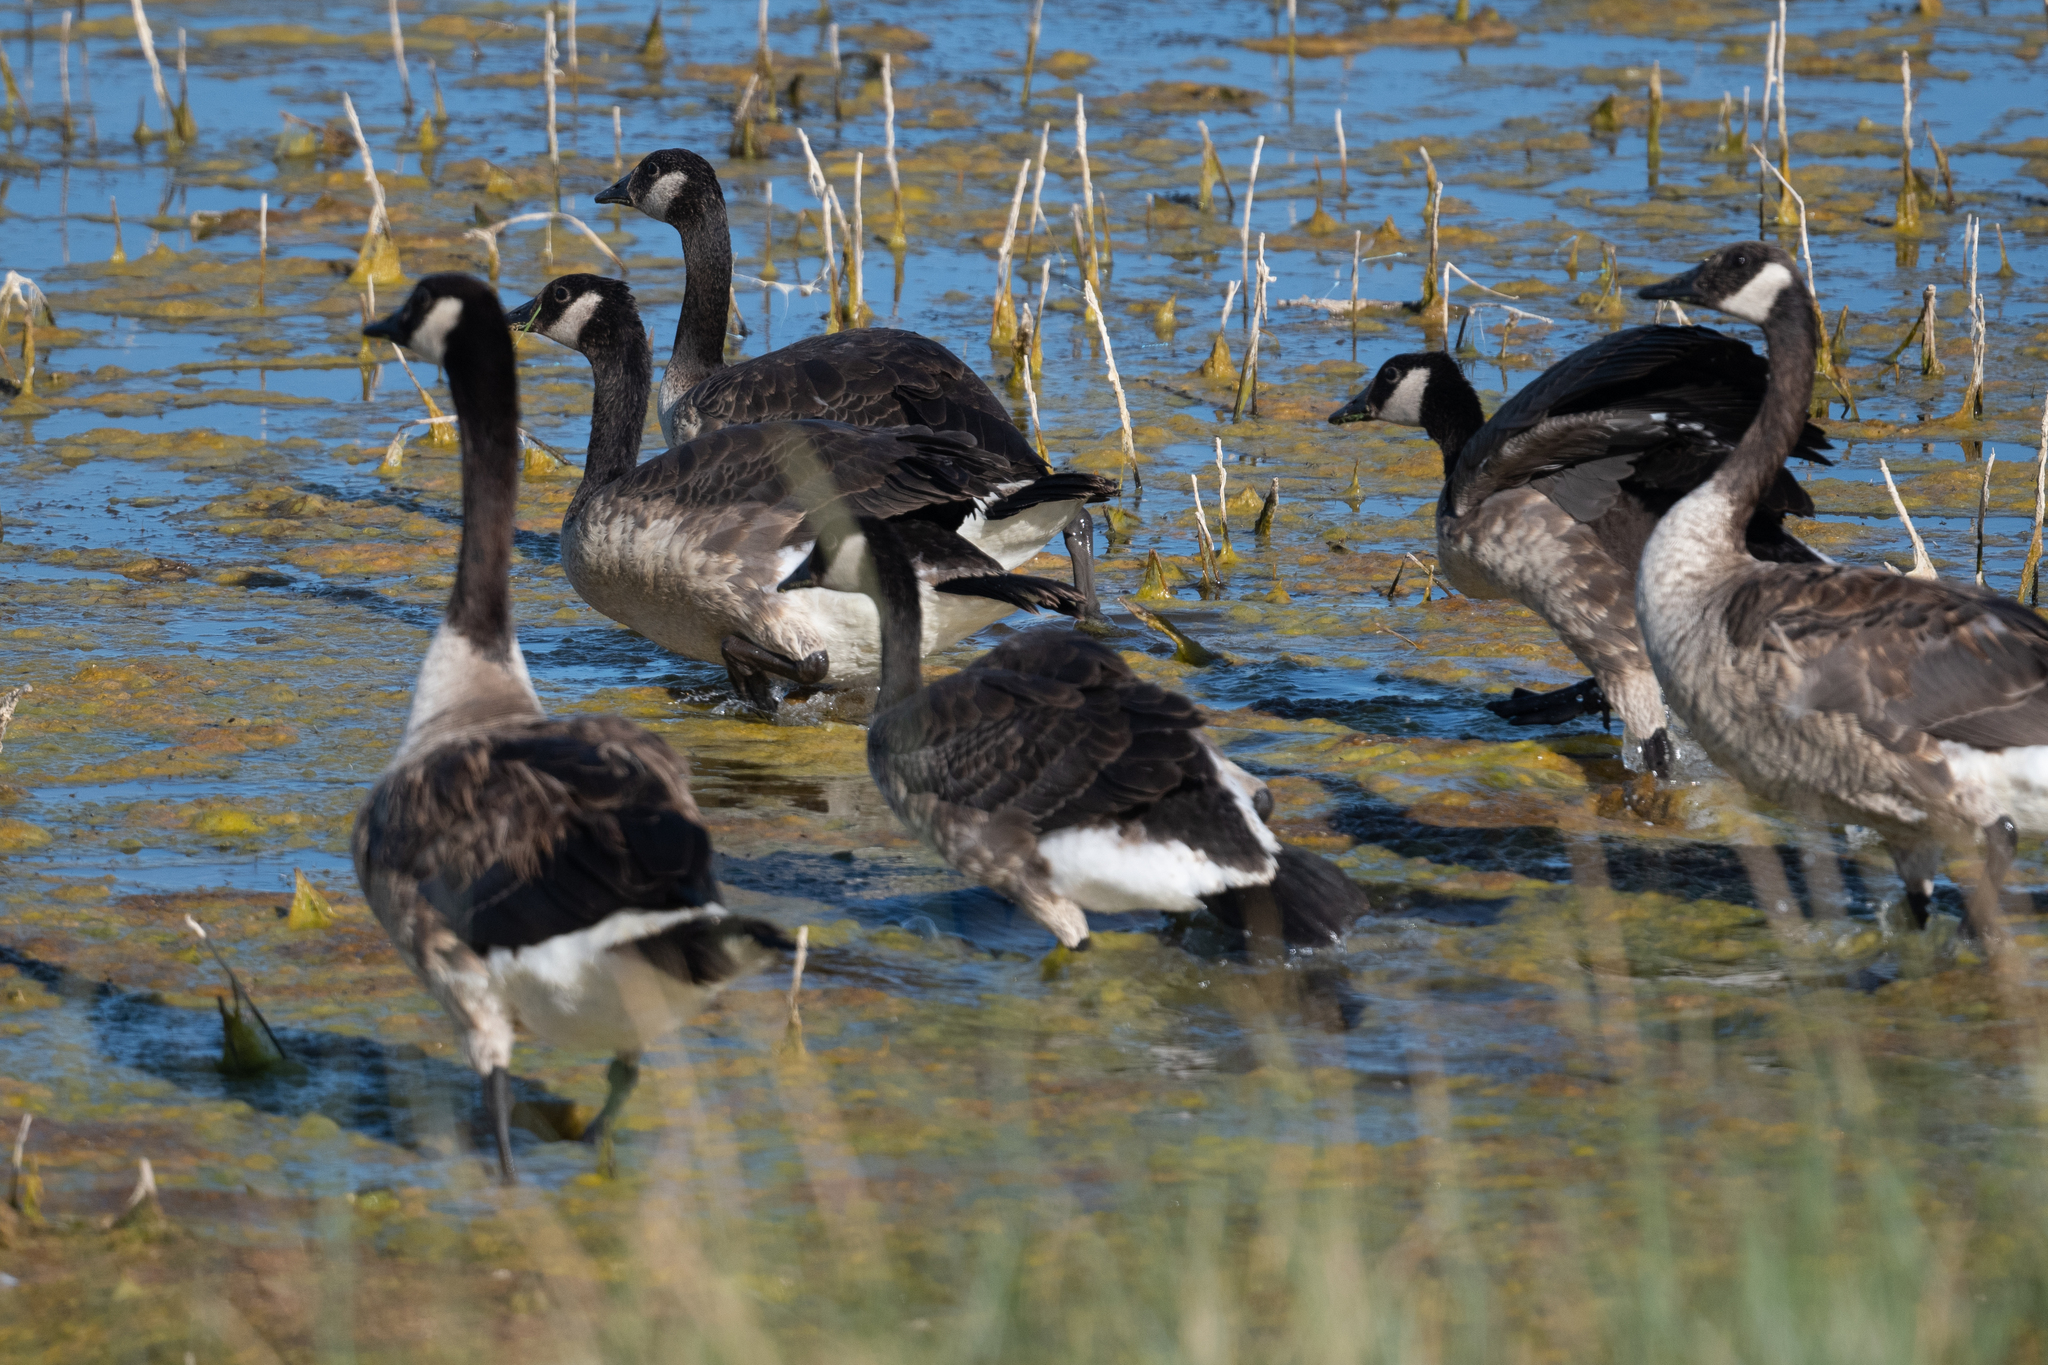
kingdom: Animalia
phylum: Chordata
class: Aves
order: Anseriformes
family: Anatidae
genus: Branta
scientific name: Branta canadensis
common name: Canada goose
